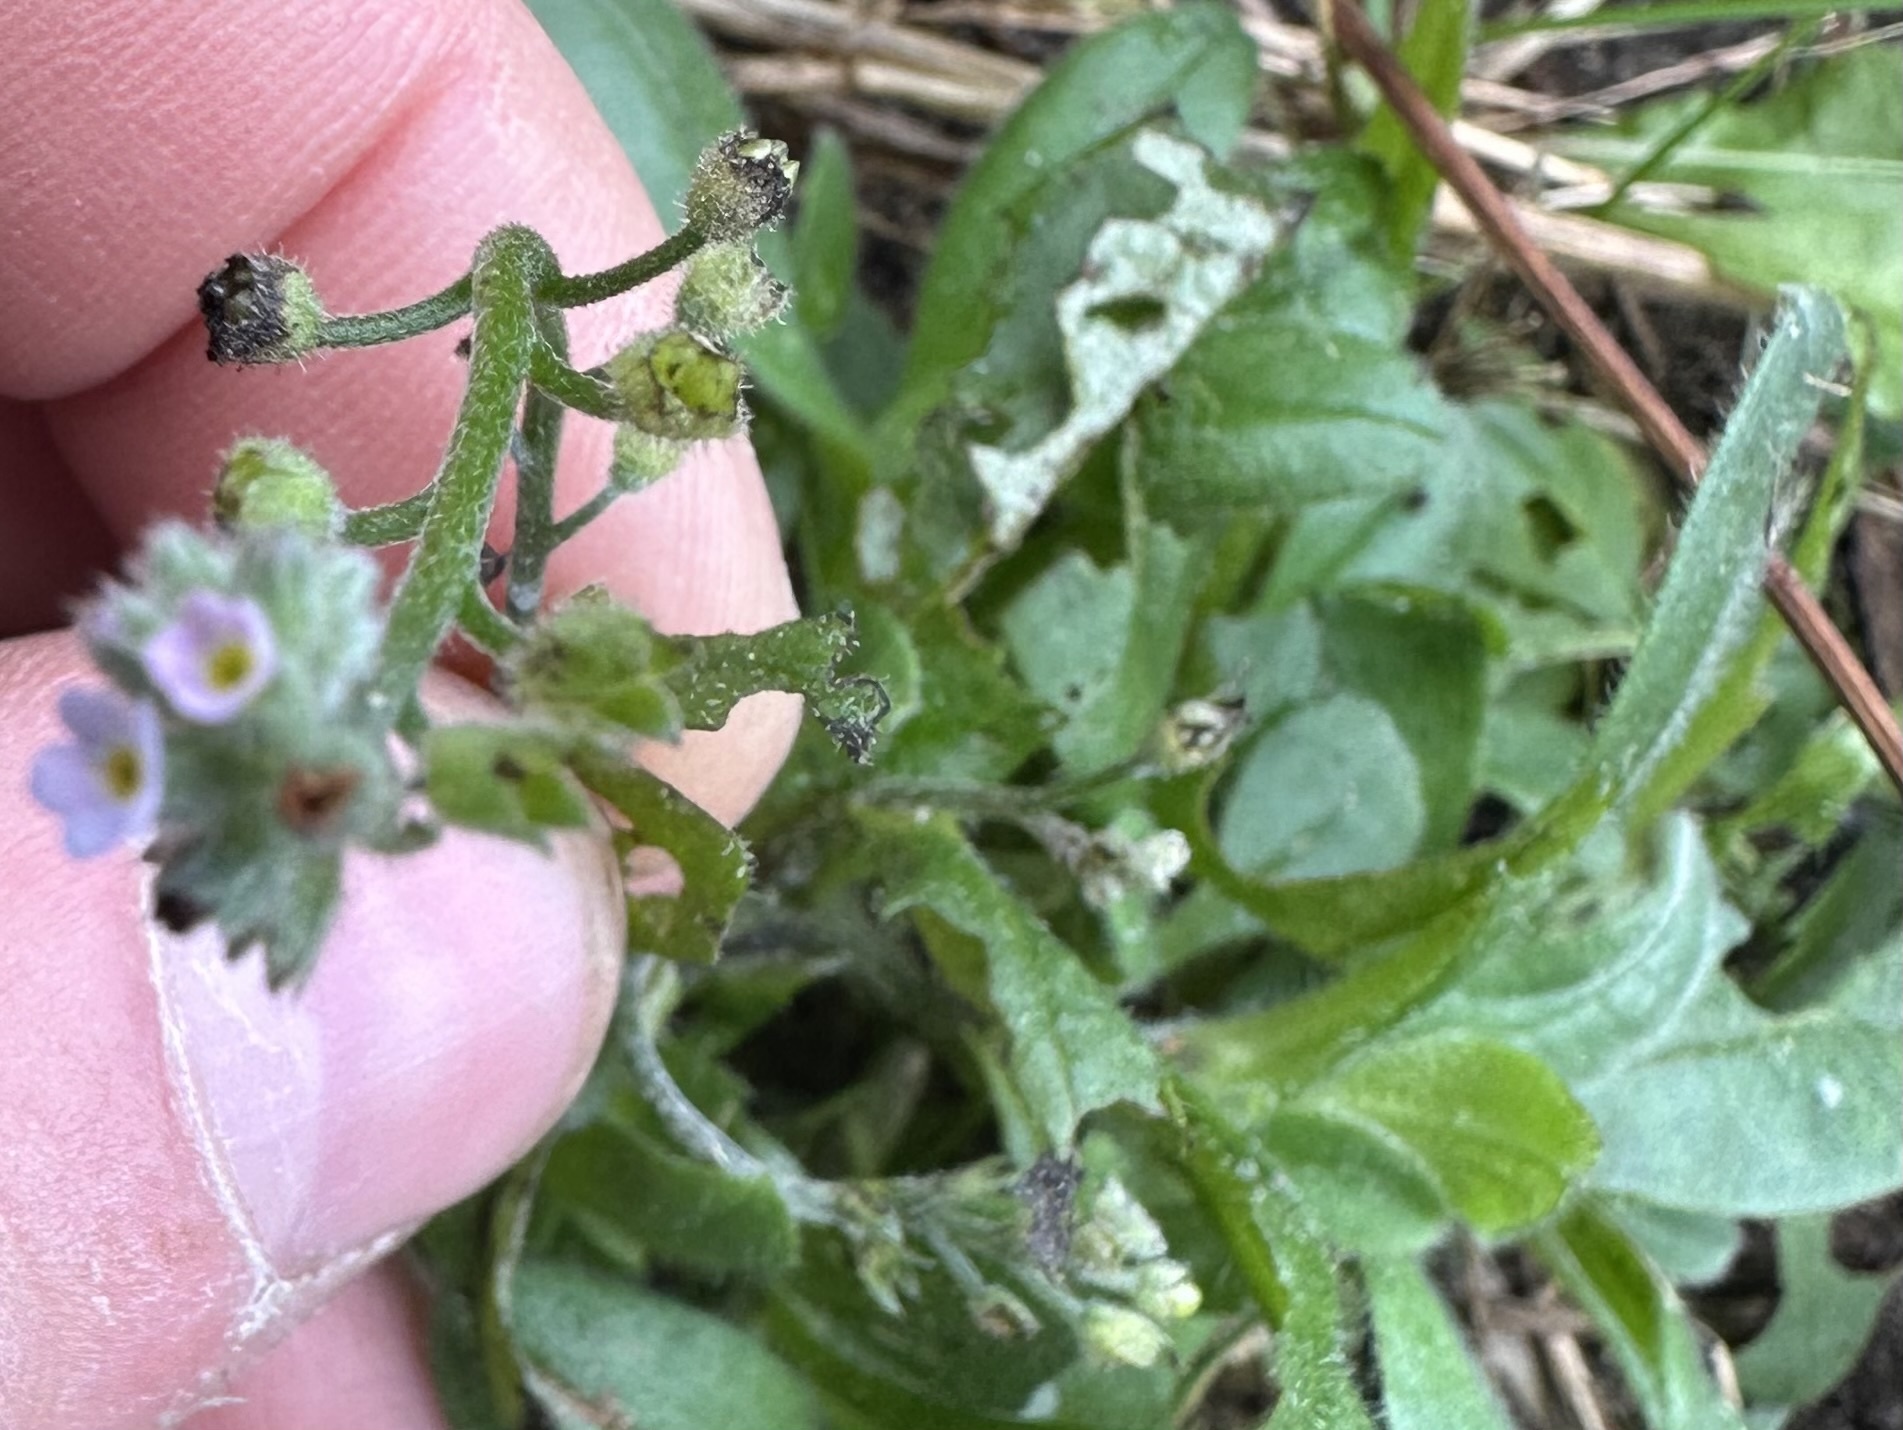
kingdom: Plantae
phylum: Tracheophyta
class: Magnoliopsida
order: Boraginales
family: Boraginaceae
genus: Myosotis
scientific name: Myosotis arvensis
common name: Field forget-me-not
